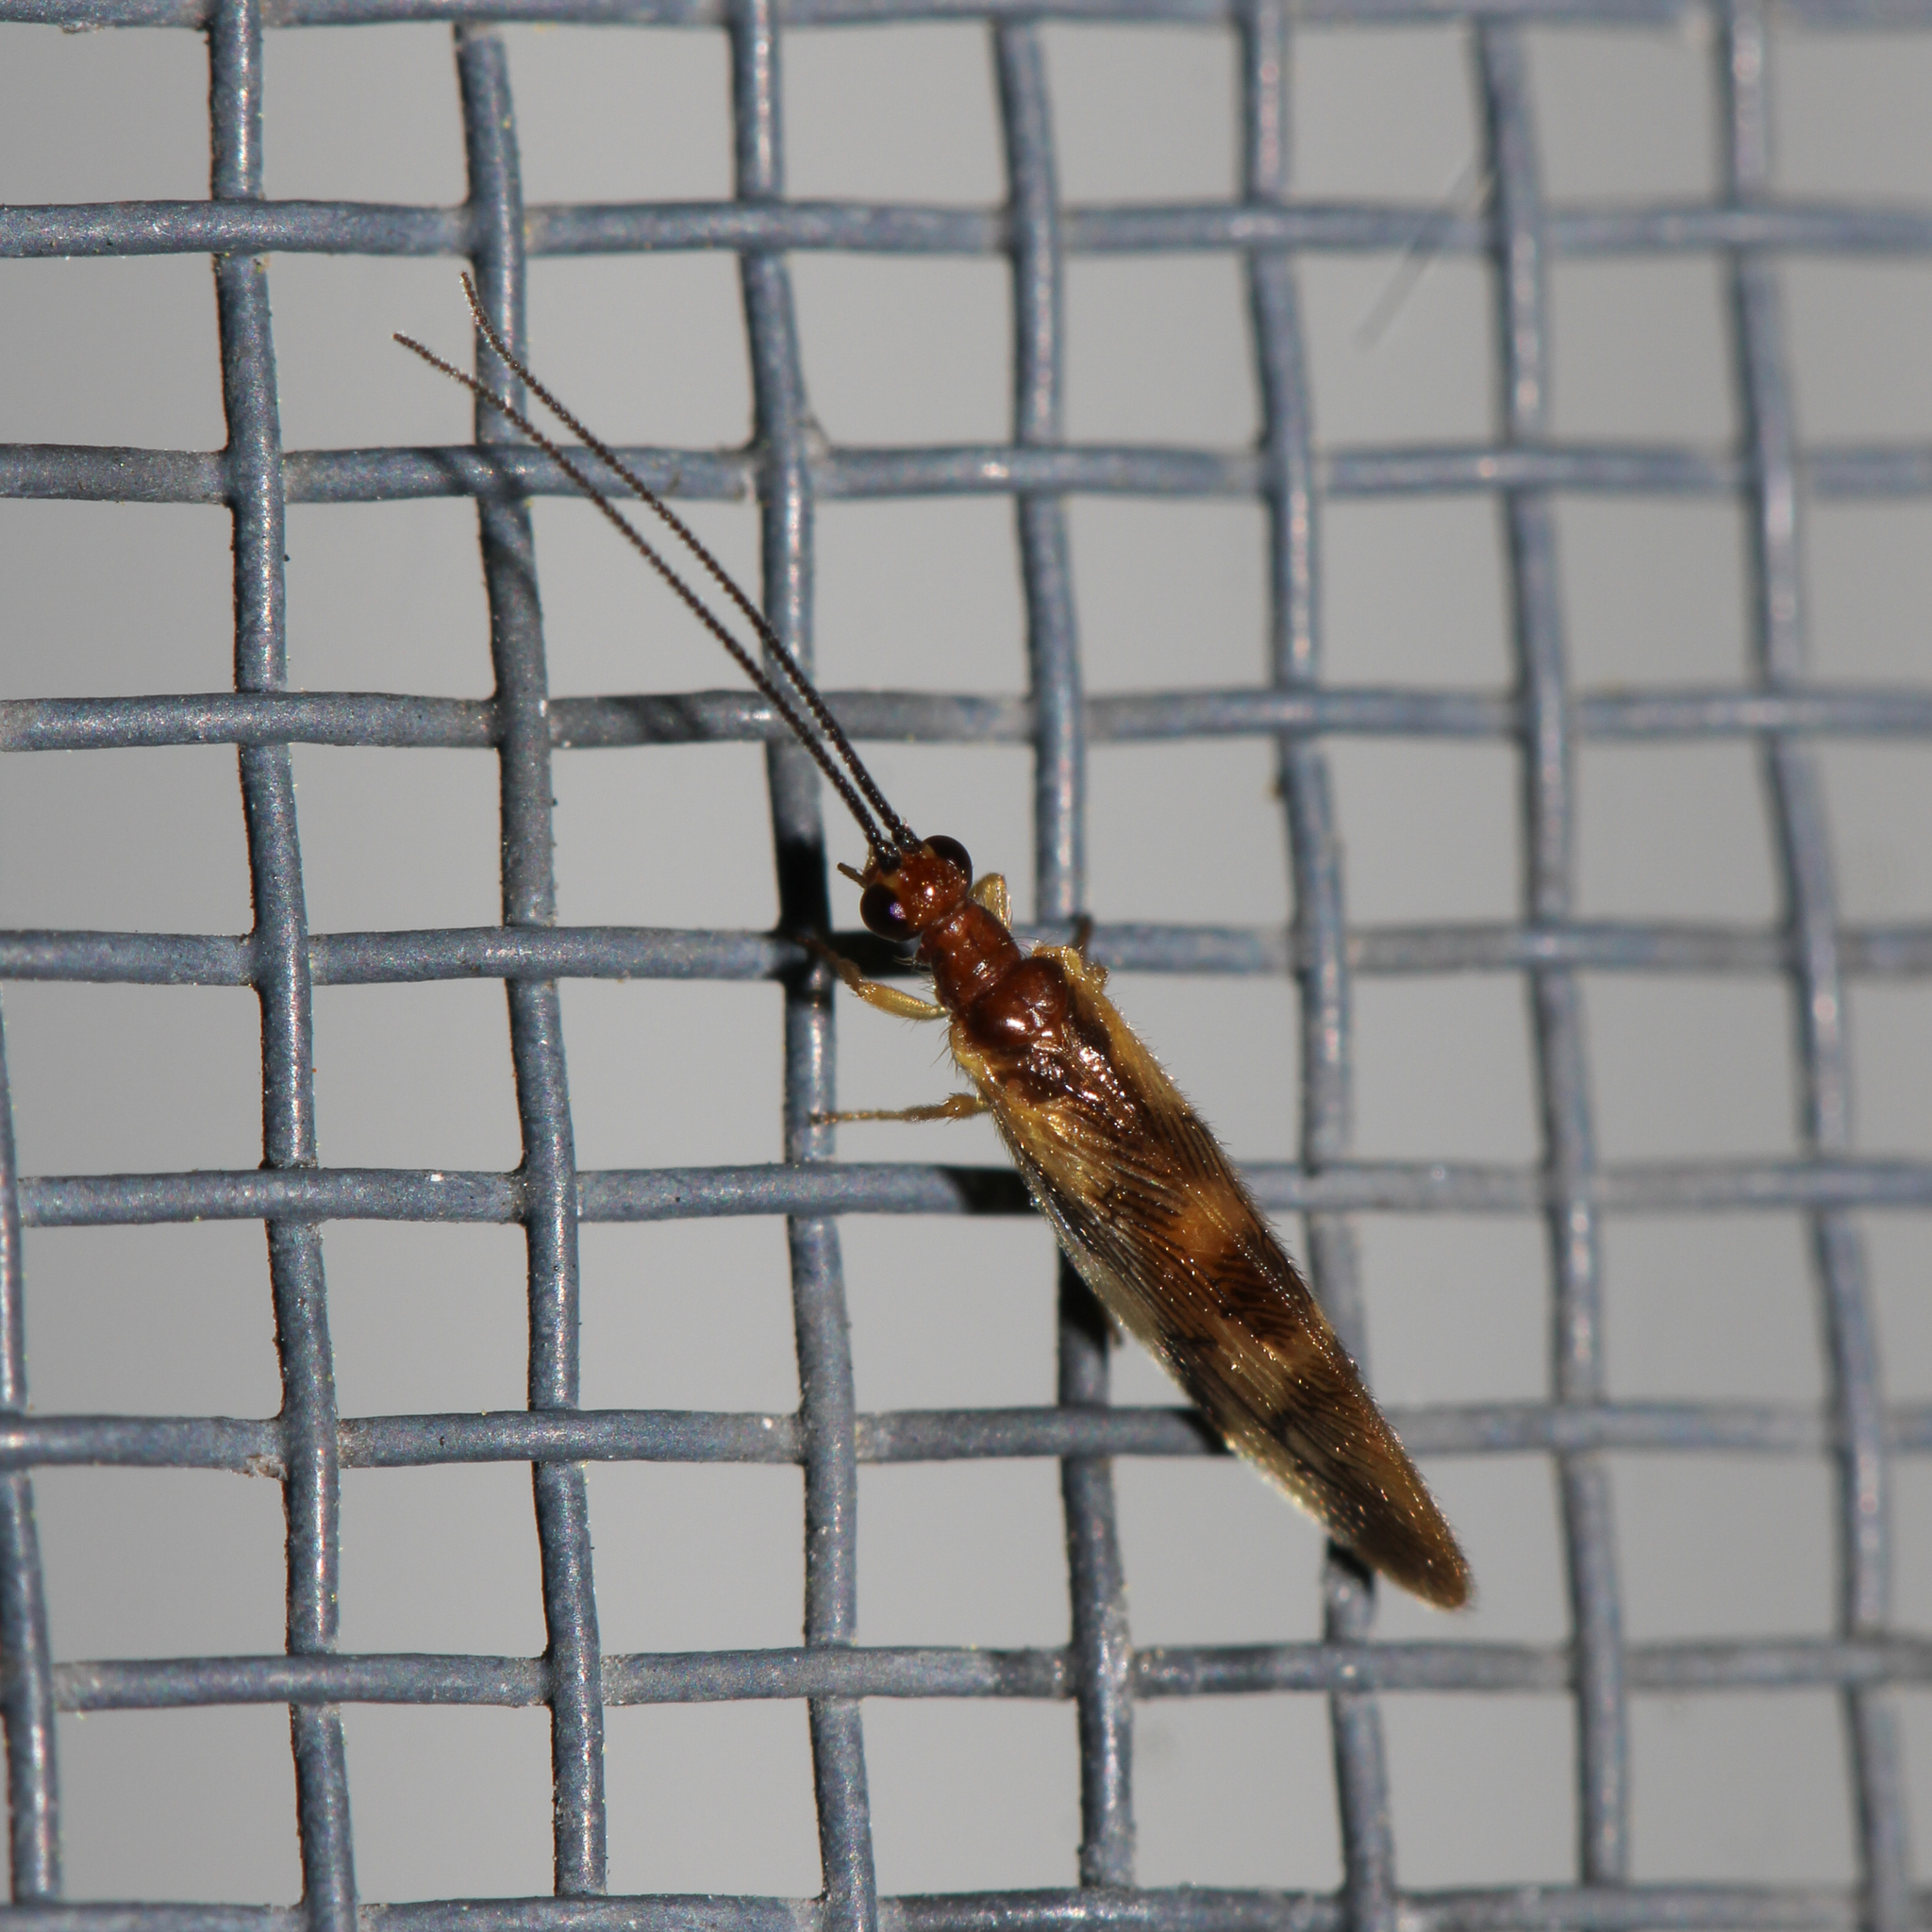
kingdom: Animalia
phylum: Arthropoda
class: Insecta
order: Neuroptera
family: Sisyridae
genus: Climacia
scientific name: Climacia areolaris
